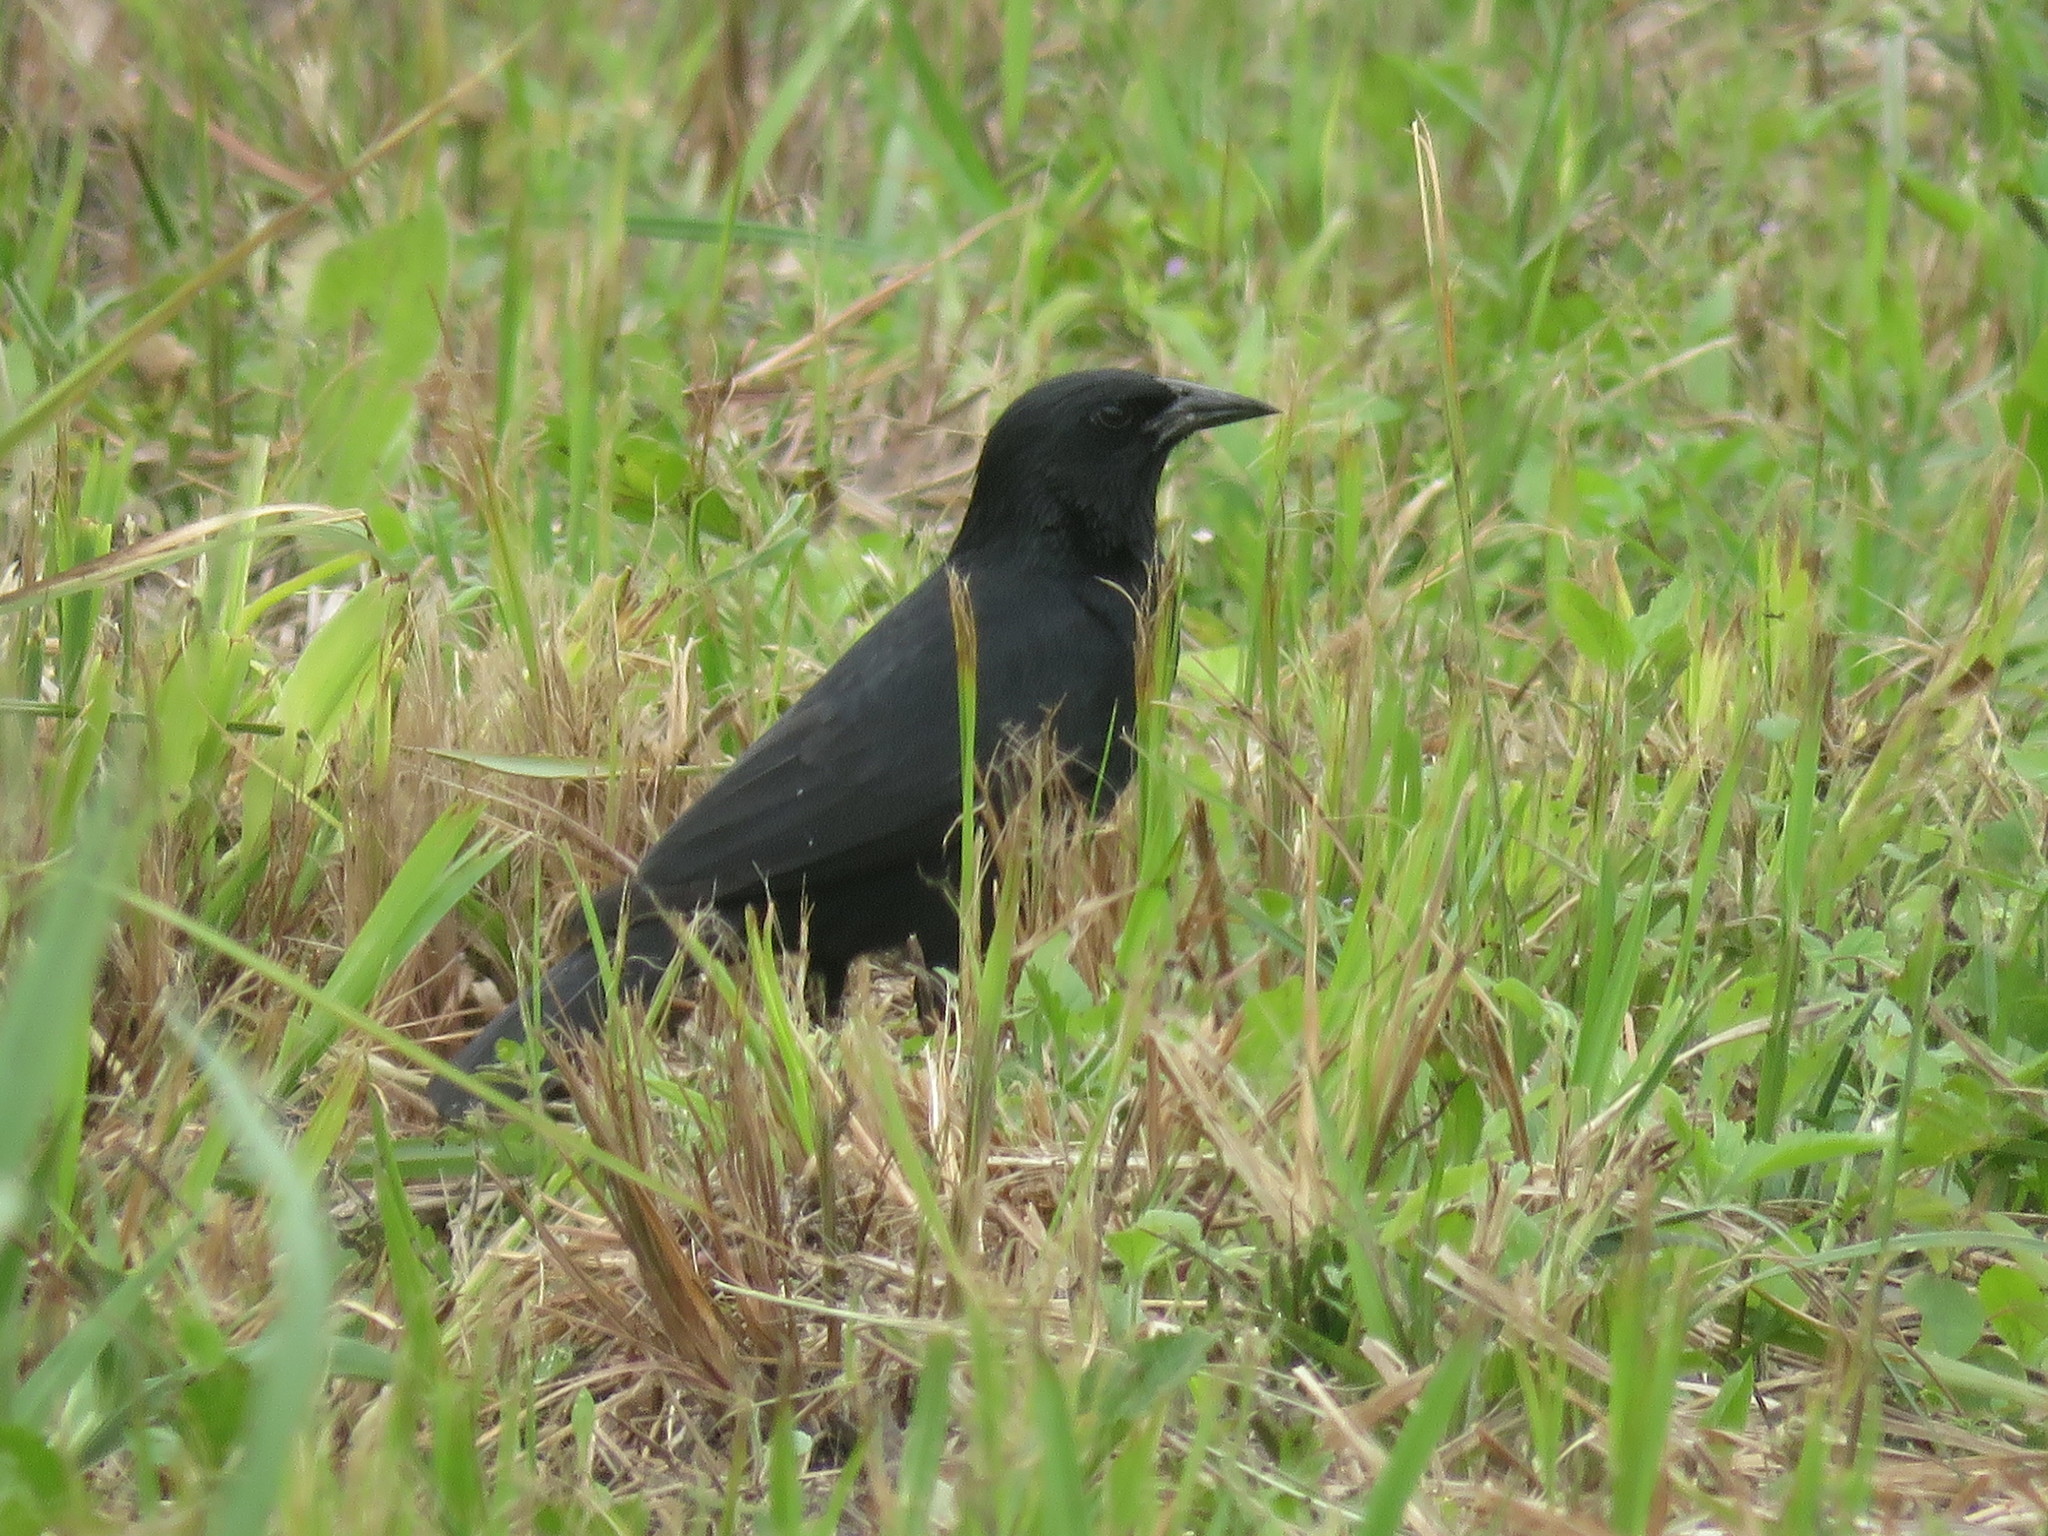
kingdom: Animalia
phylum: Chordata
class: Aves
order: Passeriformes
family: Icteridae
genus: Gnorimopsar
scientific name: Gnorimopsar chopi
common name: Chopi blackbird
